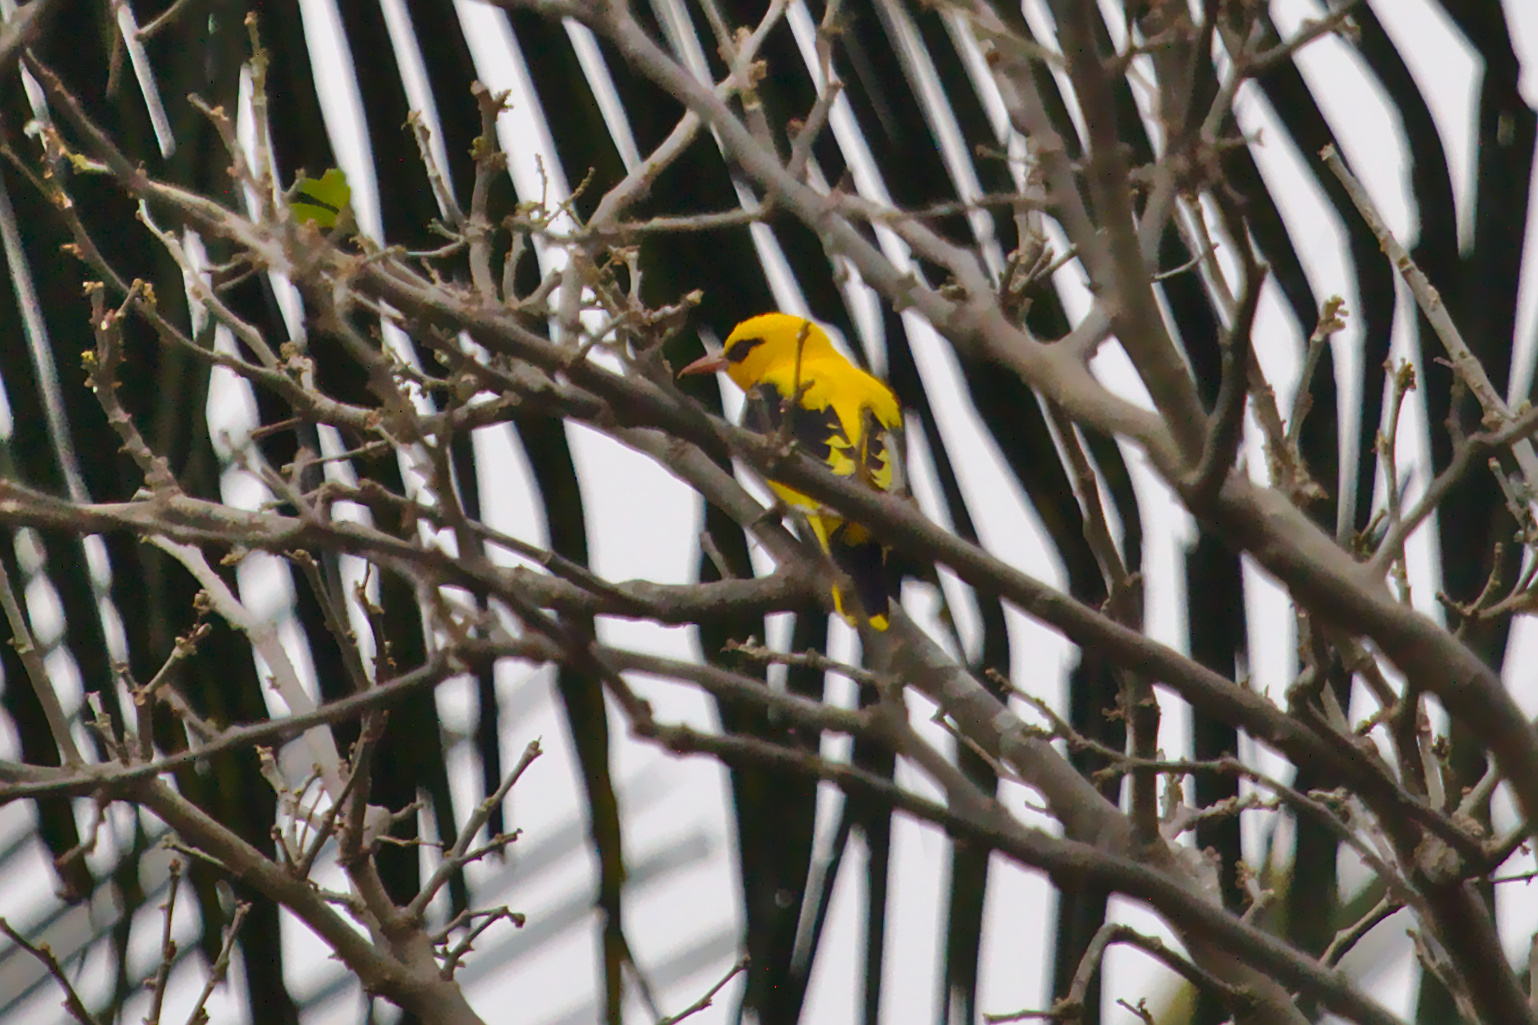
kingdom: Animalia
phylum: Chordata
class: Aves
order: Passeriformes
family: Oriolidae
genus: Oriolus
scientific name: Oriolus kundoo
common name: Indian golden oriole
